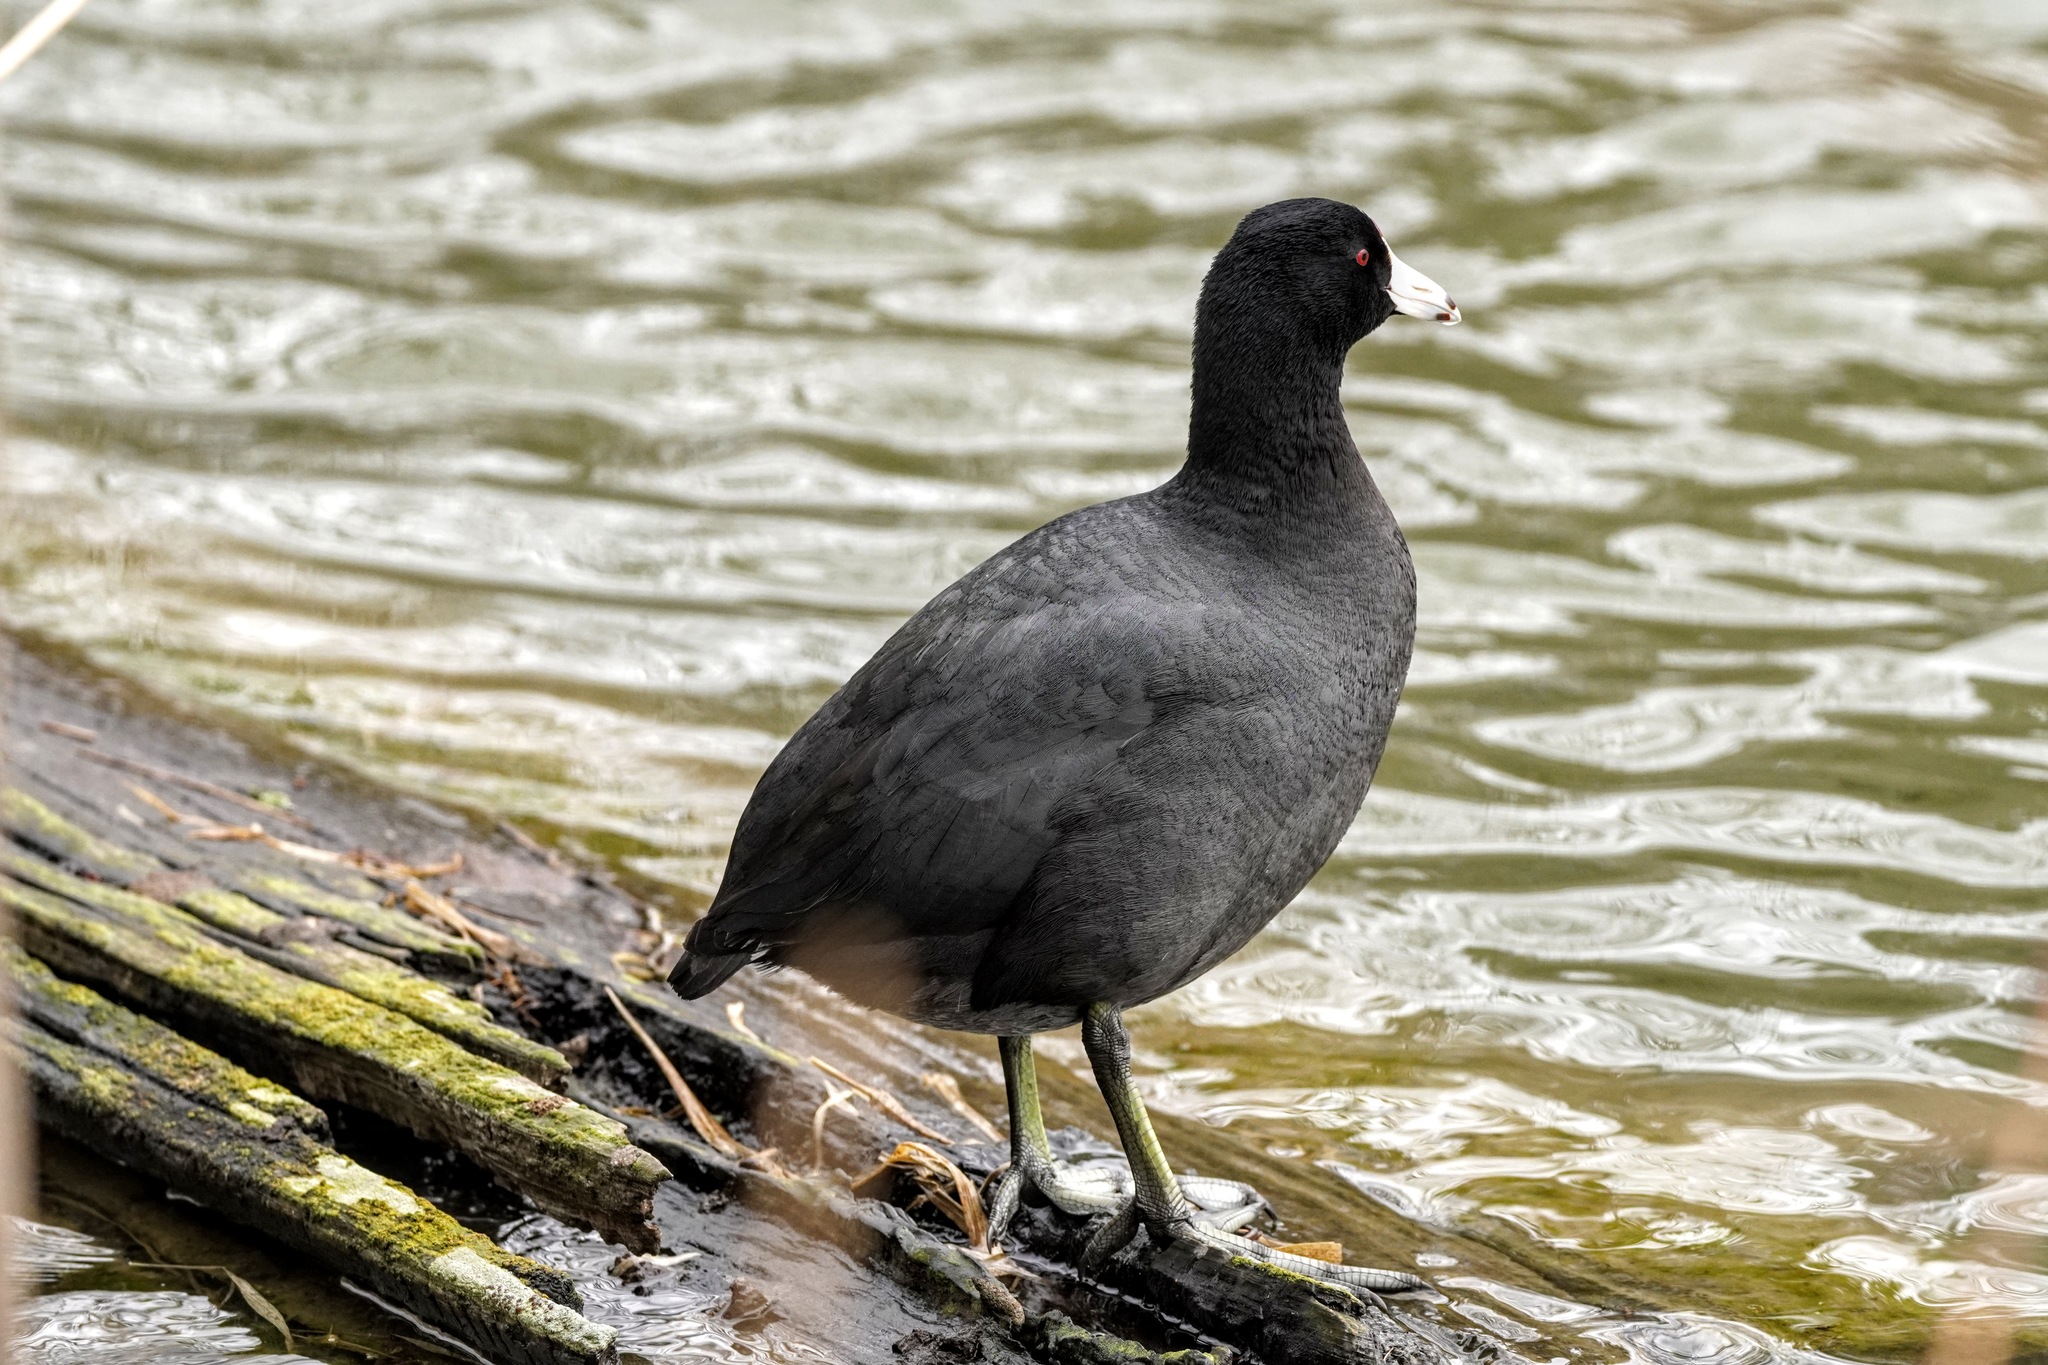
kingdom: Animalia
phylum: Chordata
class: Aves
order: Gruiformes
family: Rallidae
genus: Fulica
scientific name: Fulica americana
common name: American coot
